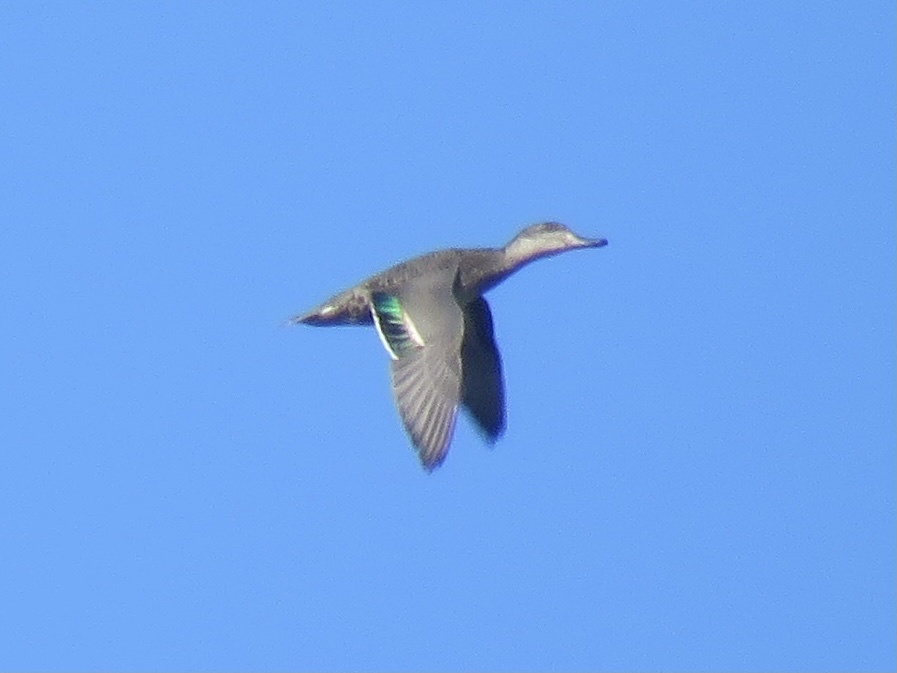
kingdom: Animalia
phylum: Chordata
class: Aves
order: Anseriformes
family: Anatidae
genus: Anas
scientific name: Anas crecca
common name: Eurasian teal
